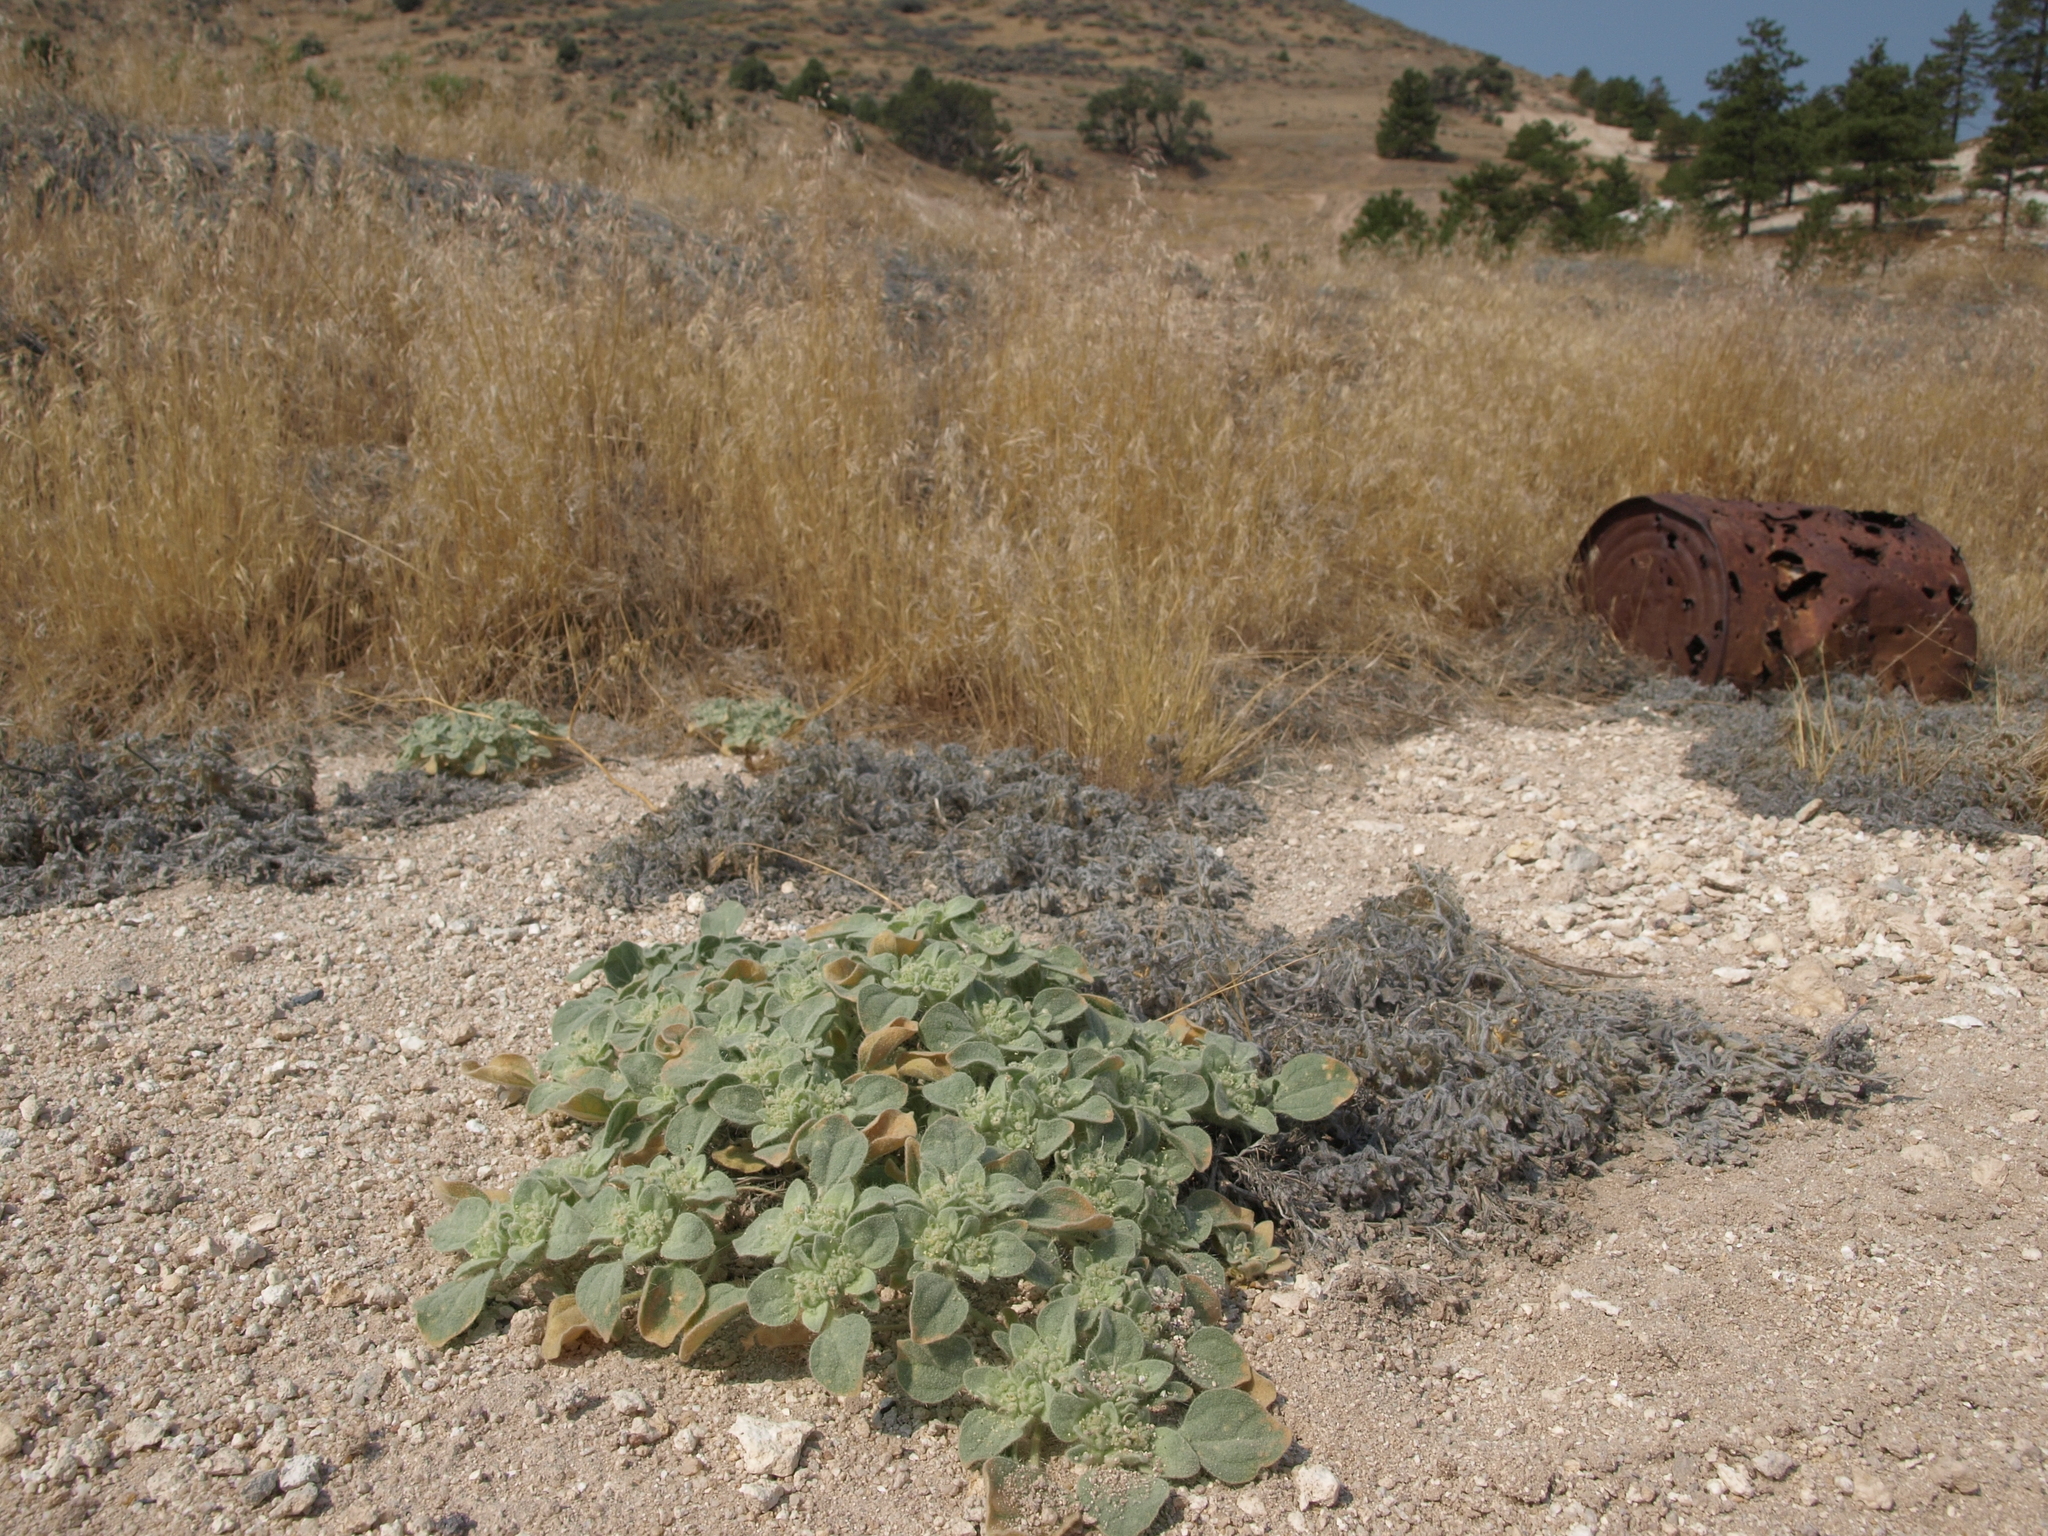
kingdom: Plantae
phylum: Tracheophyta
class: Magnoliopsida
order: Malpighiales
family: Euphorbiaceae
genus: Croton
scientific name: Croton setiger
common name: Dove weed
